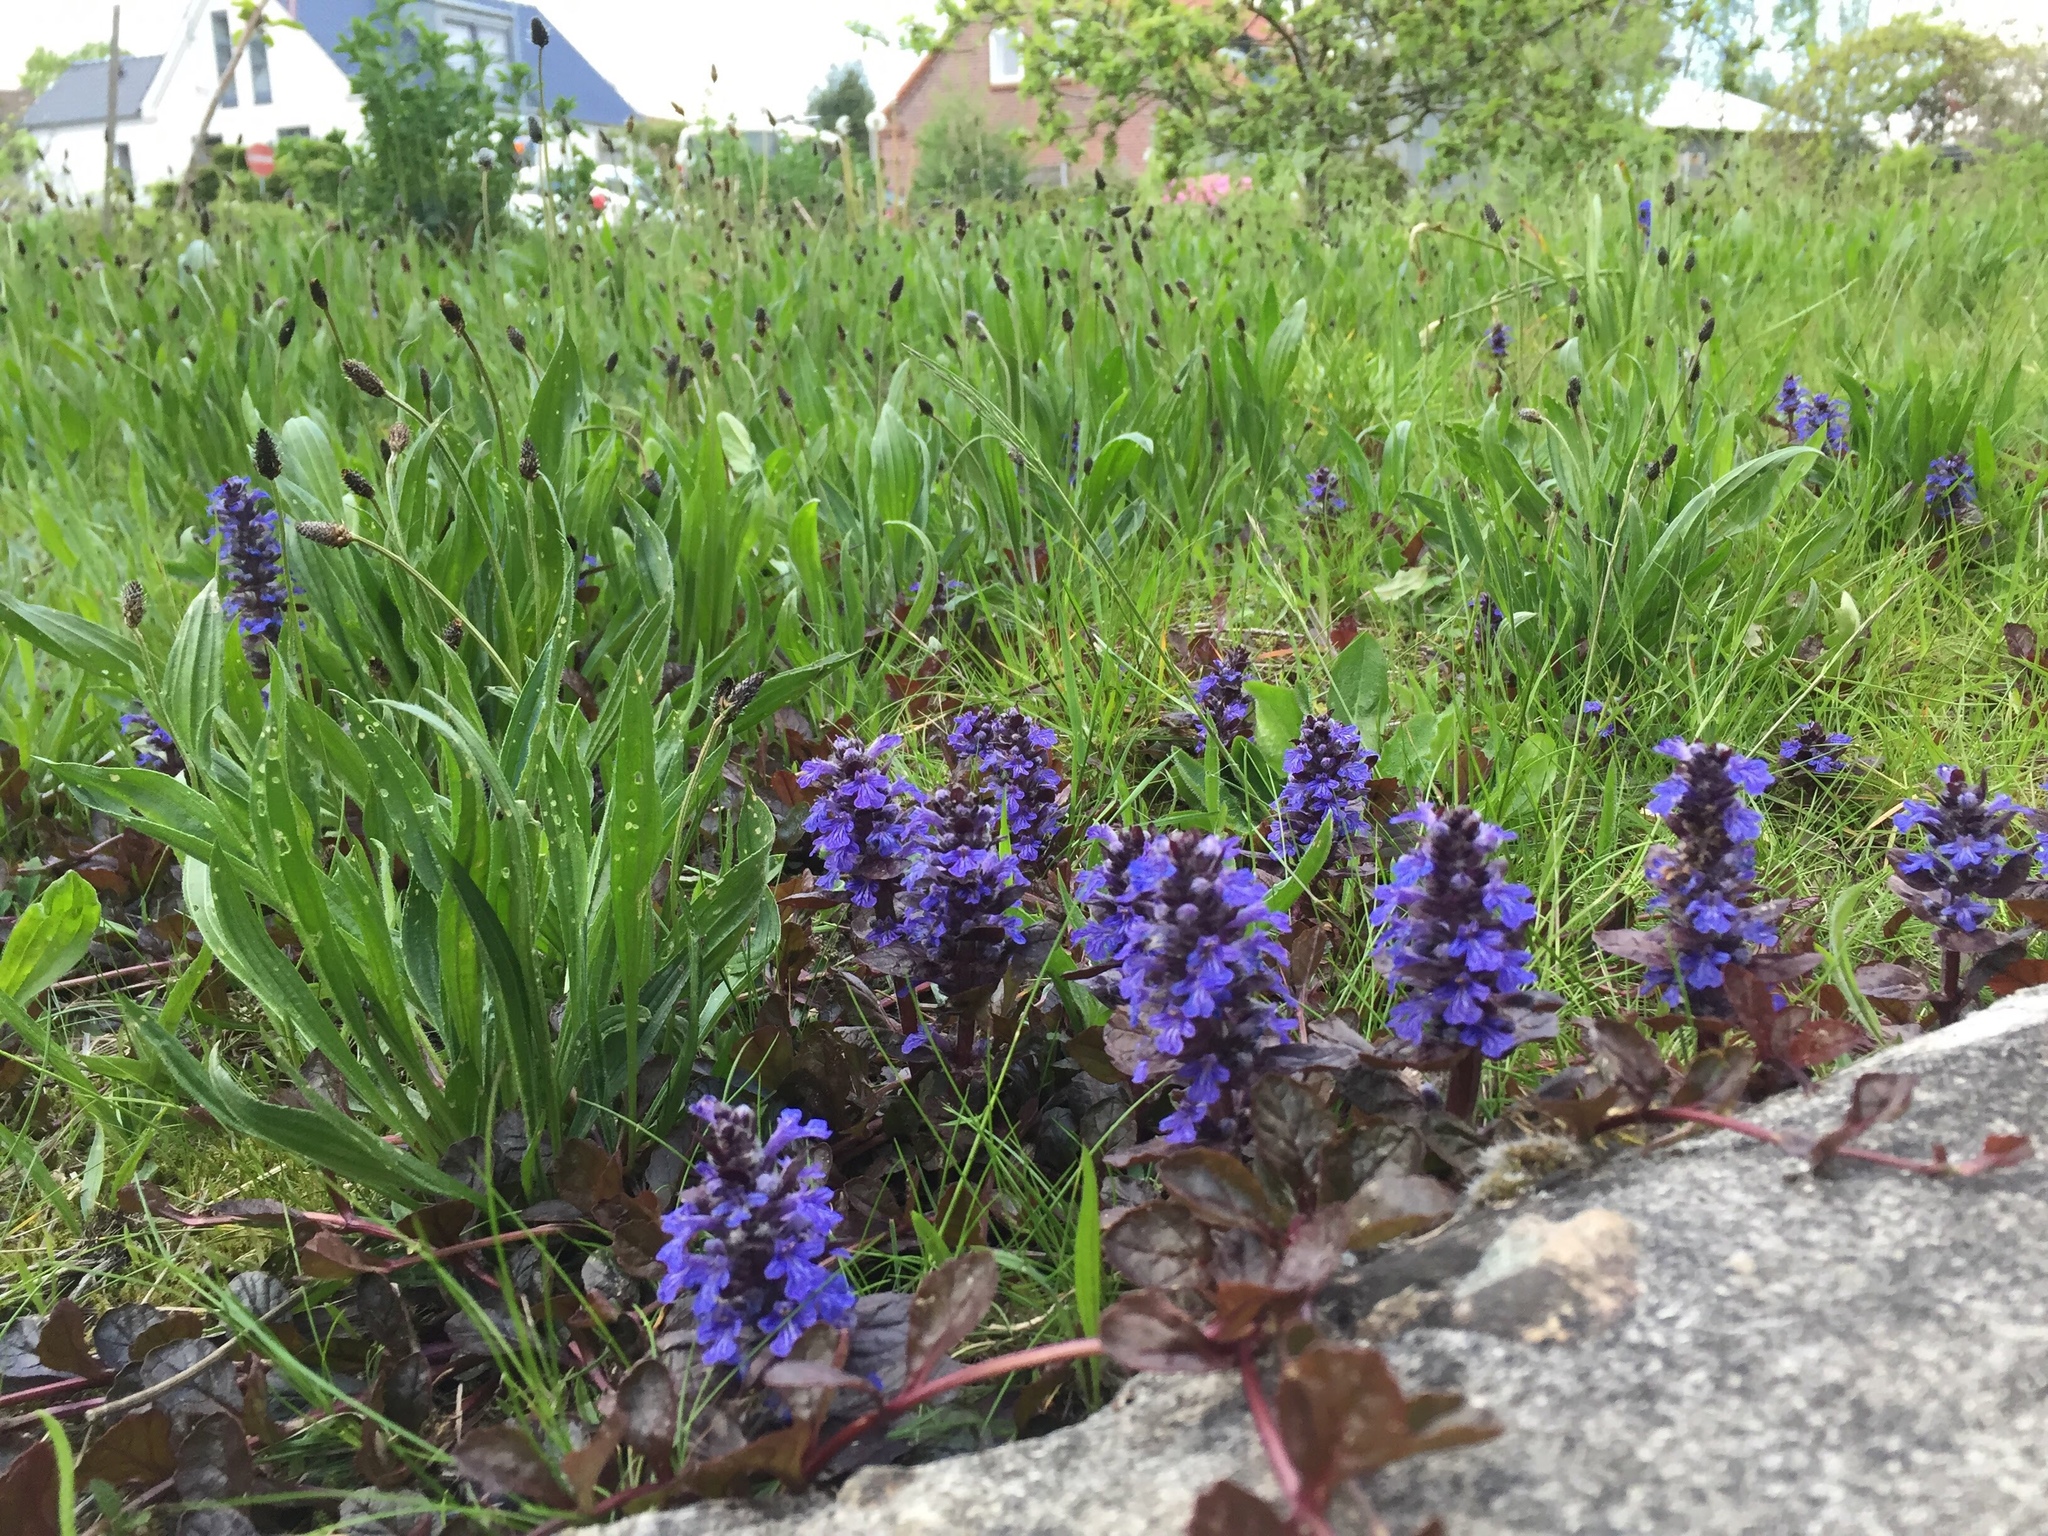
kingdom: Plantae
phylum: Tracheophyta
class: Magnoliopsida
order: Lamiales
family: Lamiaceae
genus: Ajuga
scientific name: Ajuga reptans
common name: Bugle
